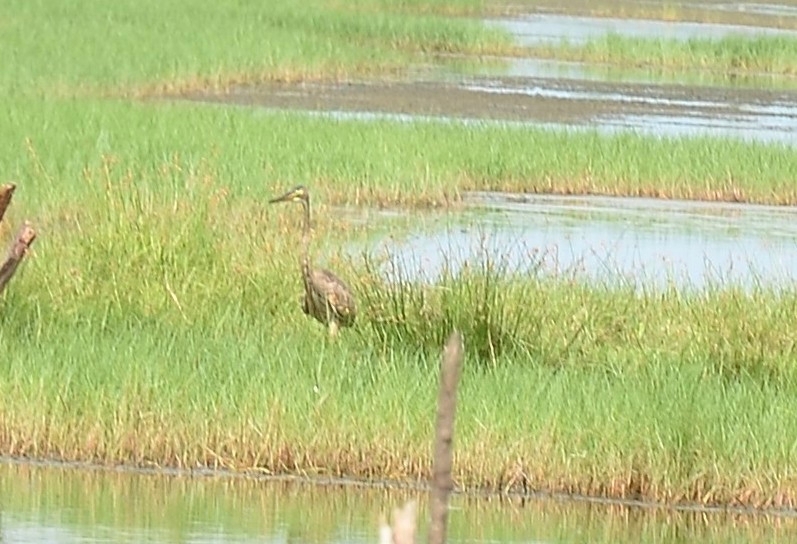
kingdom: Animalia
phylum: Chordata
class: Aves
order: Pelecaniformes
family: Ardeidae
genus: Ardea
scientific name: Ardea purpurea
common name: Purple heron
